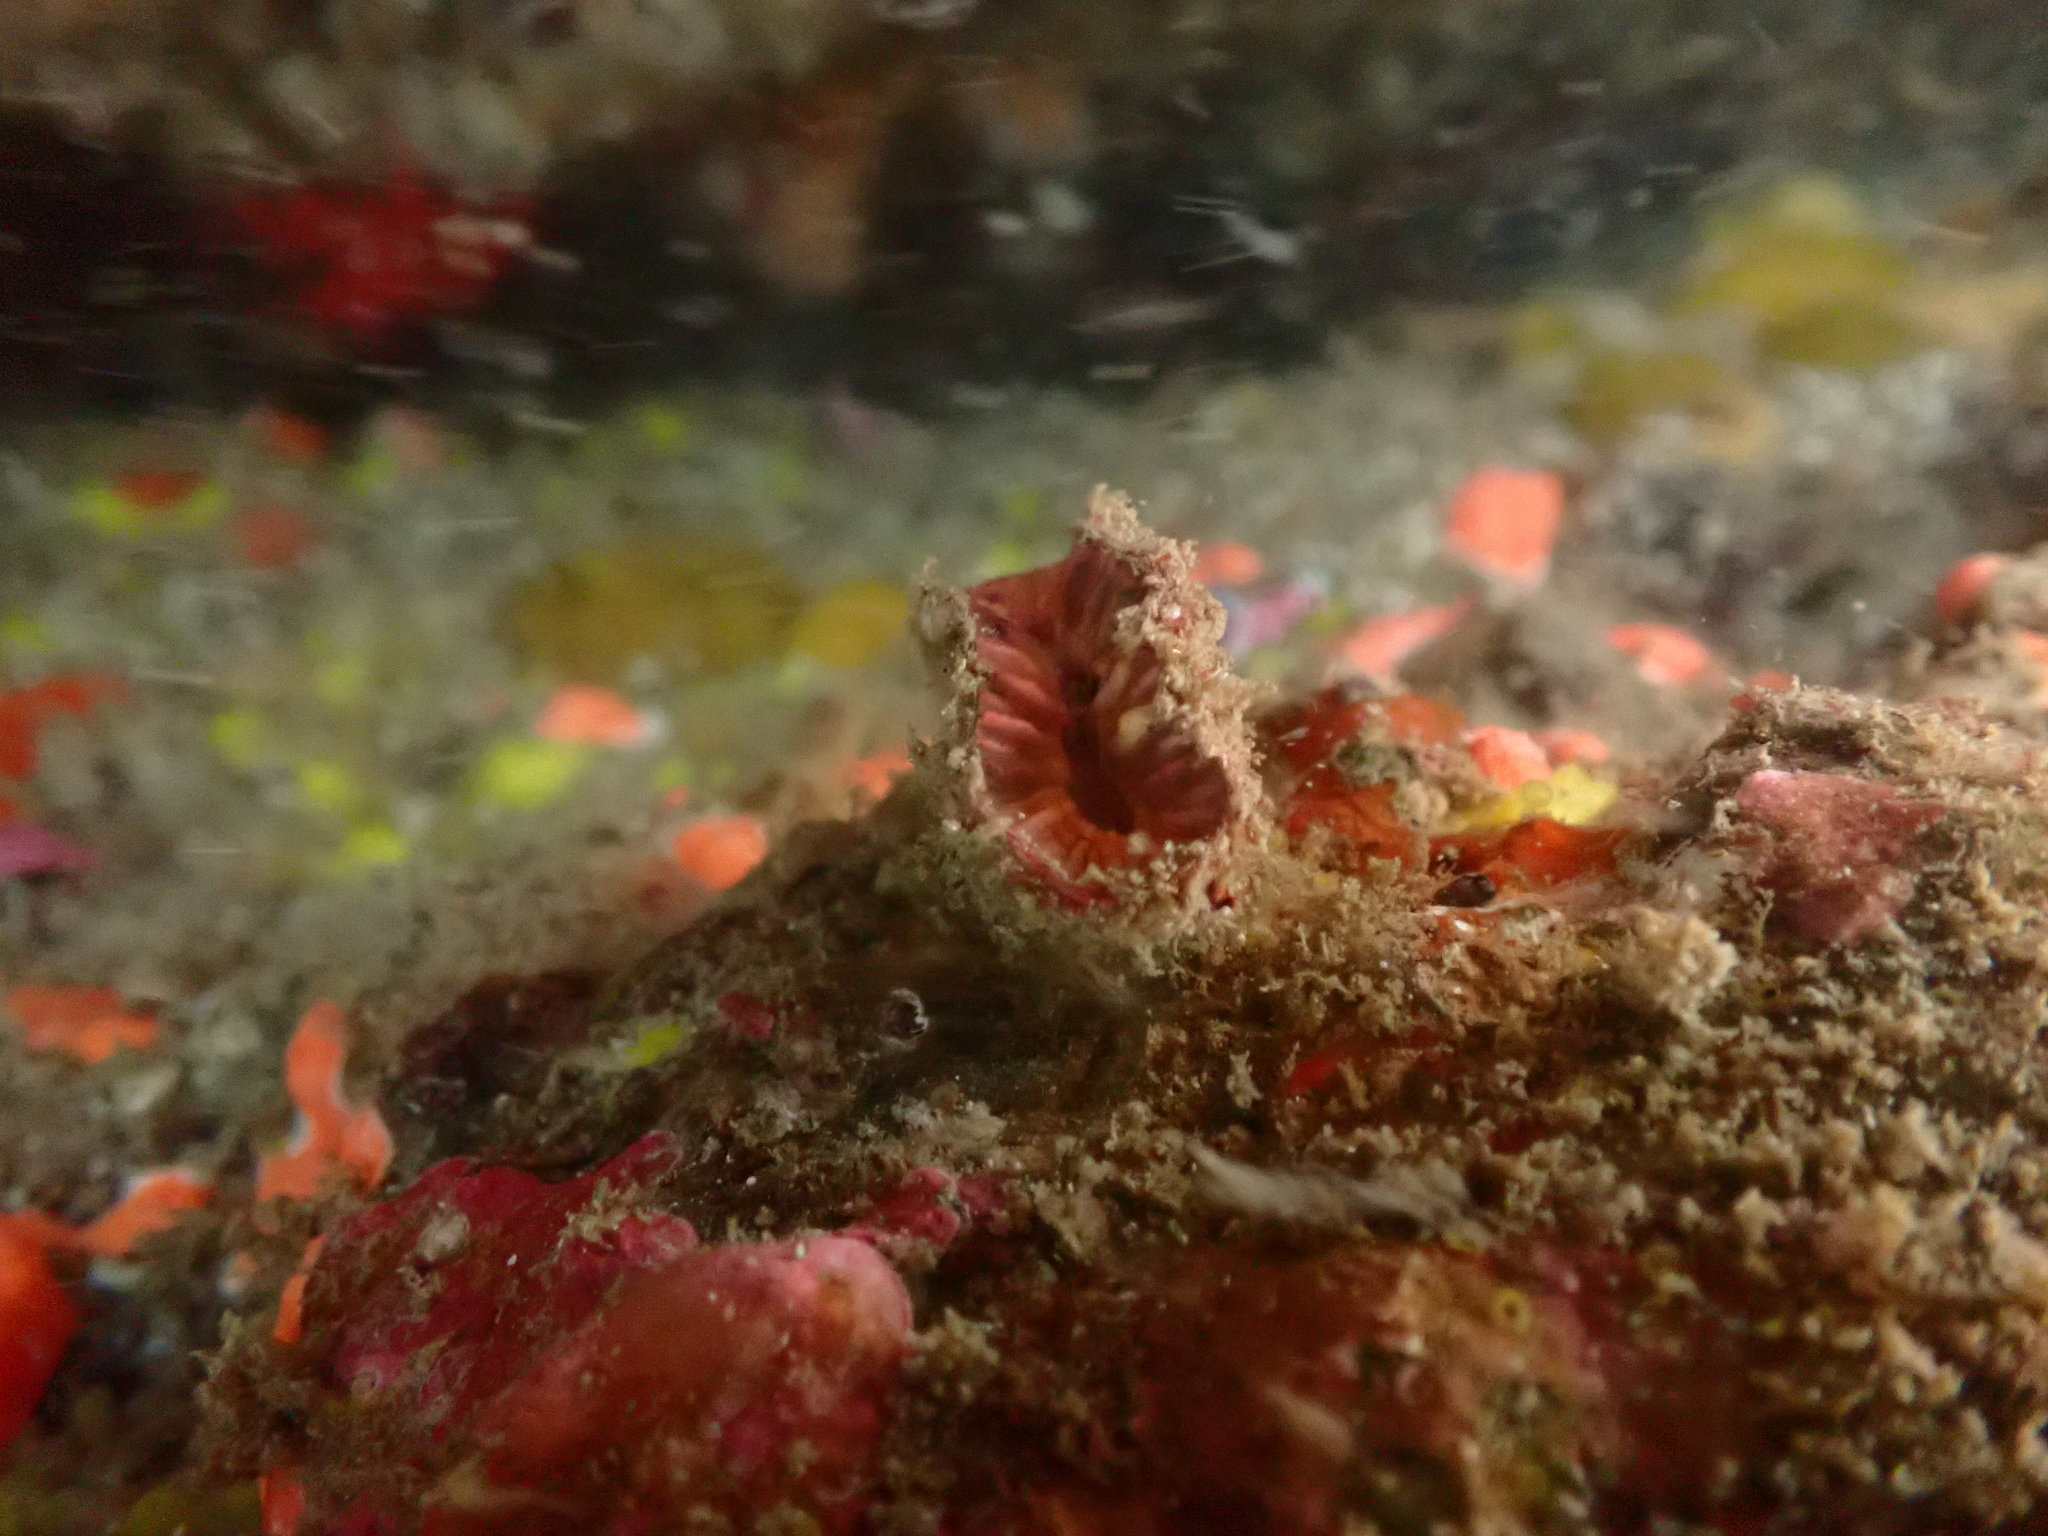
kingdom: Animalia
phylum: Cnidaria
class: Anthozoa
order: Scleractinia
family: Flabellidae
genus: Monomyces
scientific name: Monomyces rubrum
